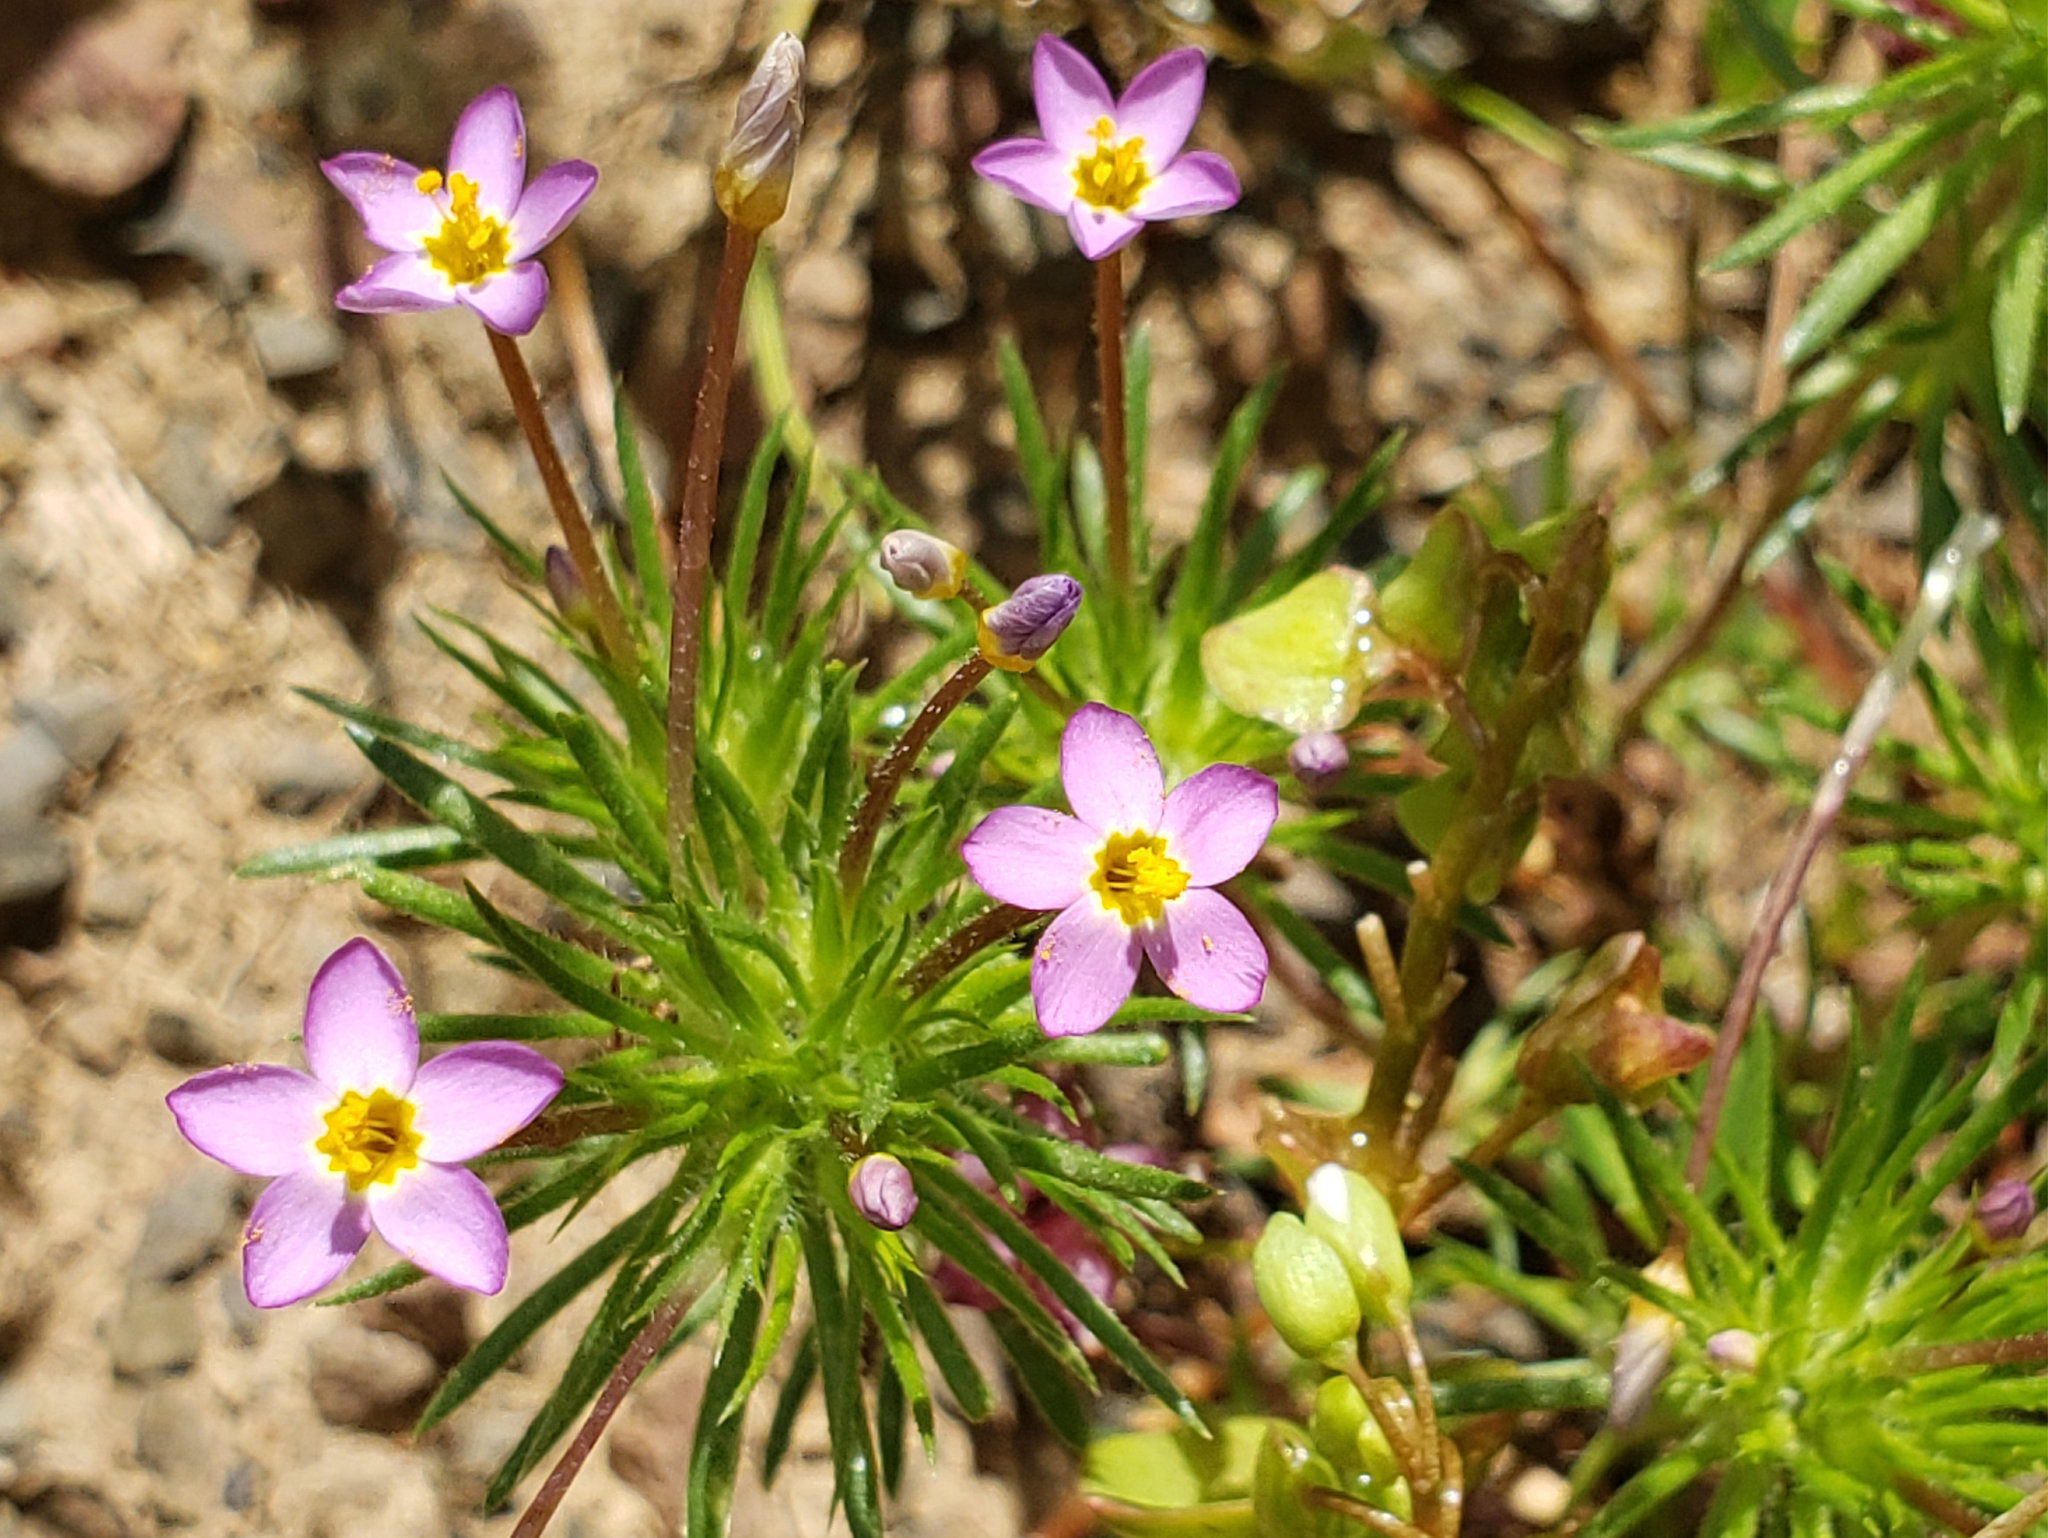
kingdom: Plantae
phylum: Tracheophyta
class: Magnoliopsida
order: Ericales
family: Polemoniaceae
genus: Leptosiphon
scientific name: Leptosiphon bicolor
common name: True babystars
